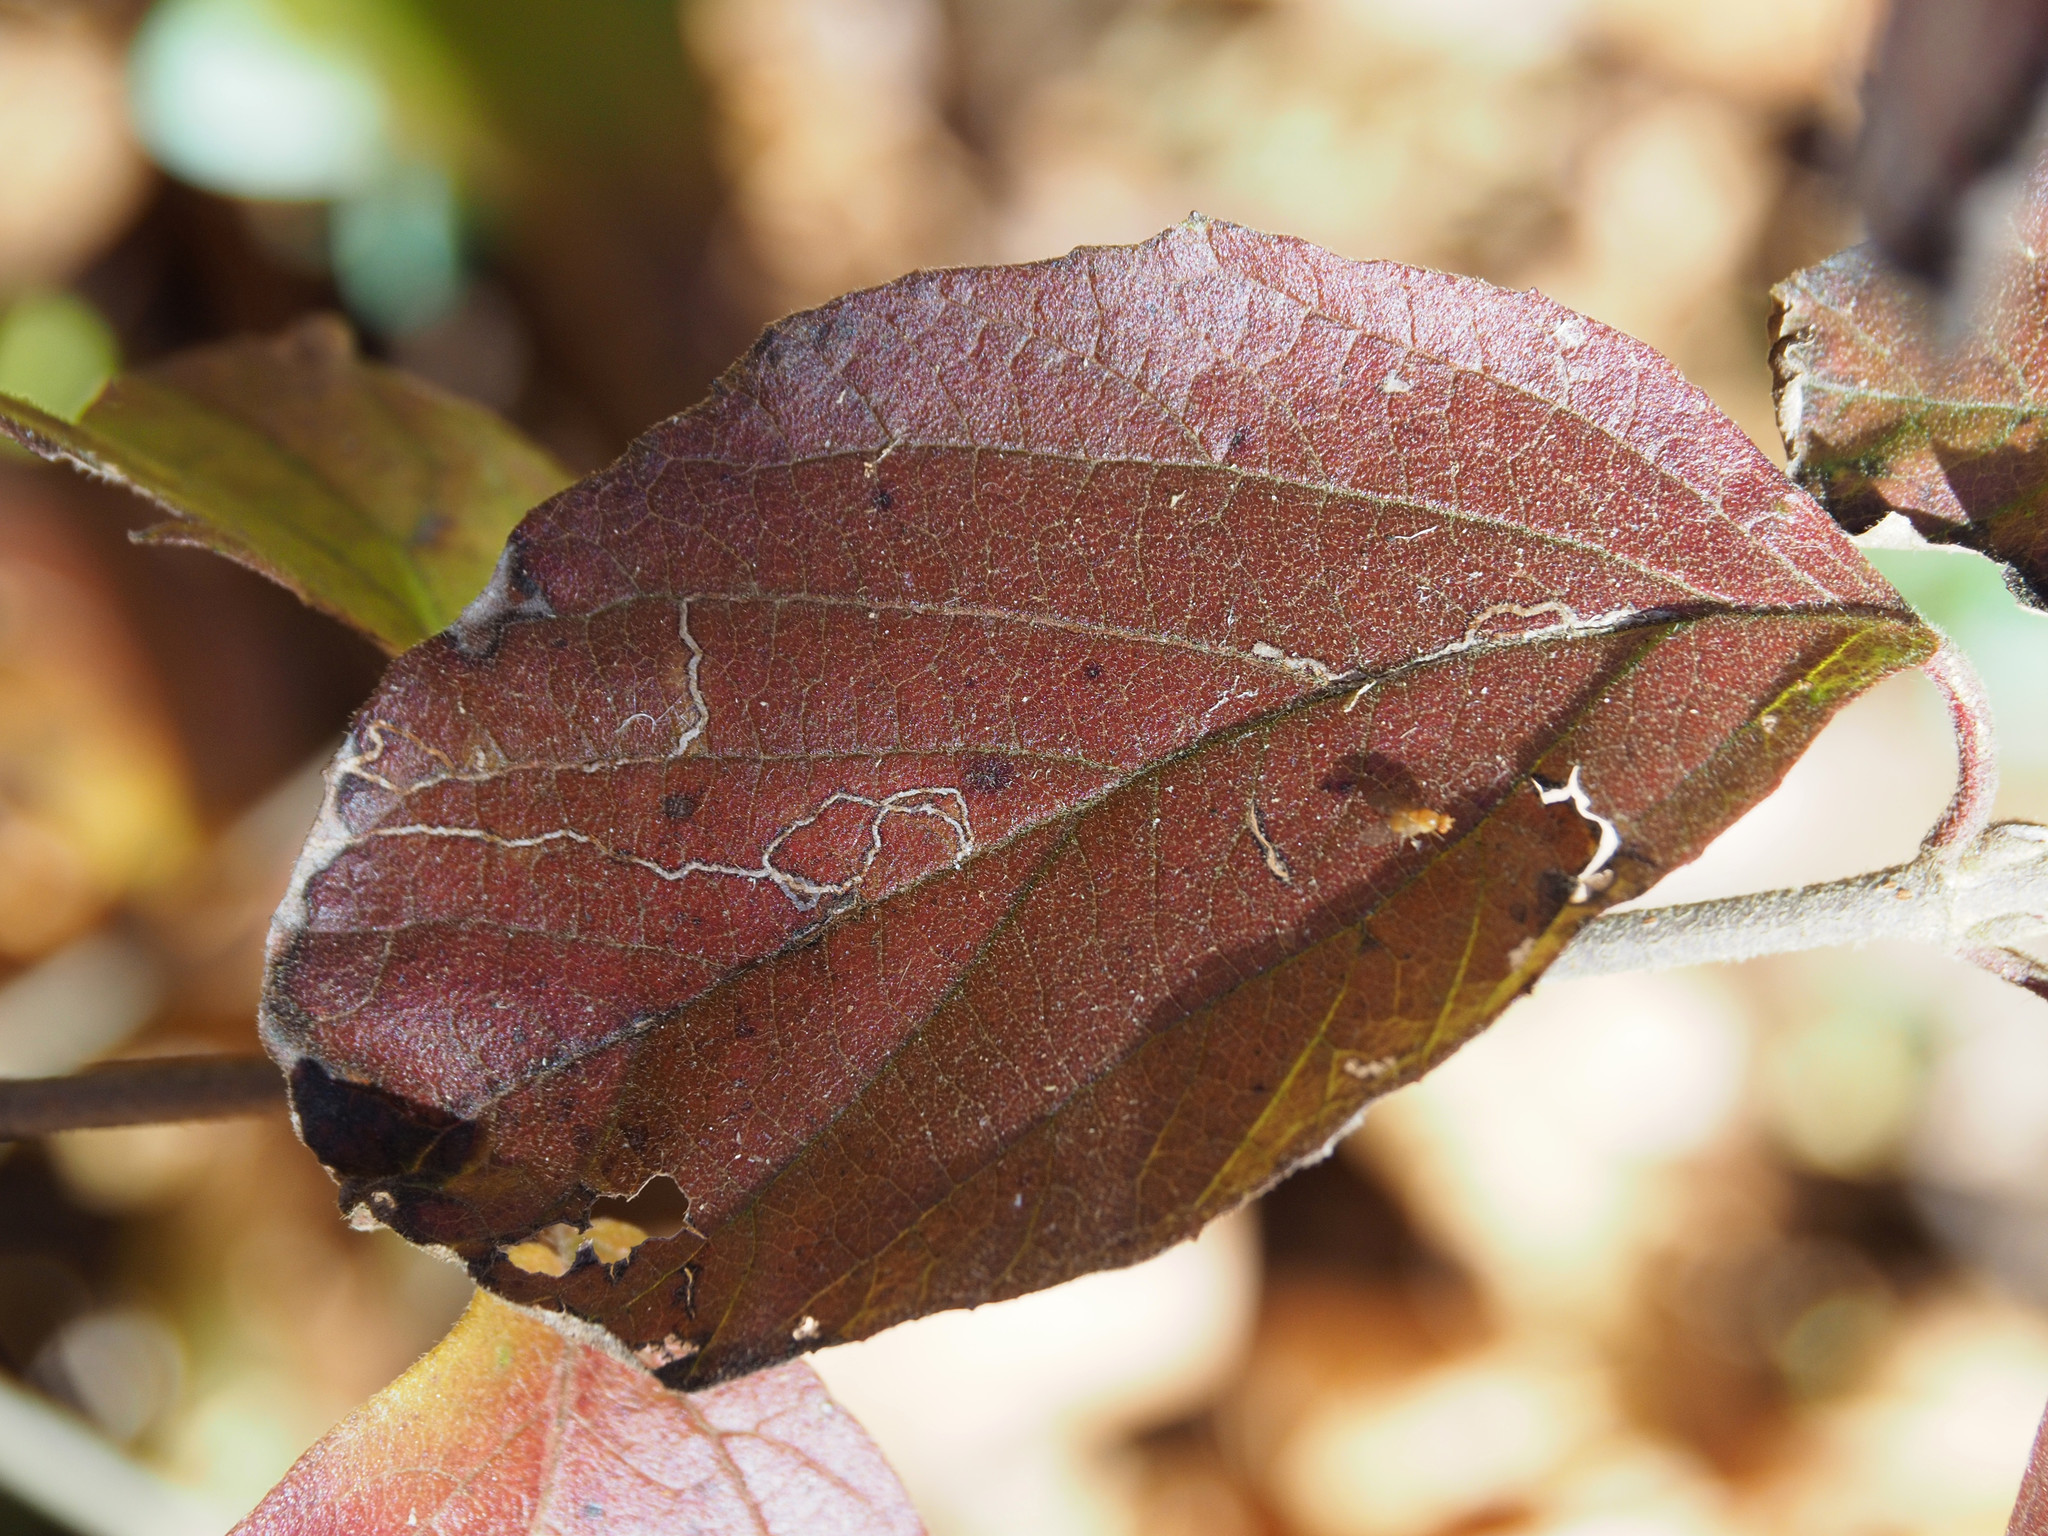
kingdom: Animalia
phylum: Arthropoda
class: Insecta
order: Lepidoptera
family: Gracillariidae
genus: Marmara
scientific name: Marmara viburnella
